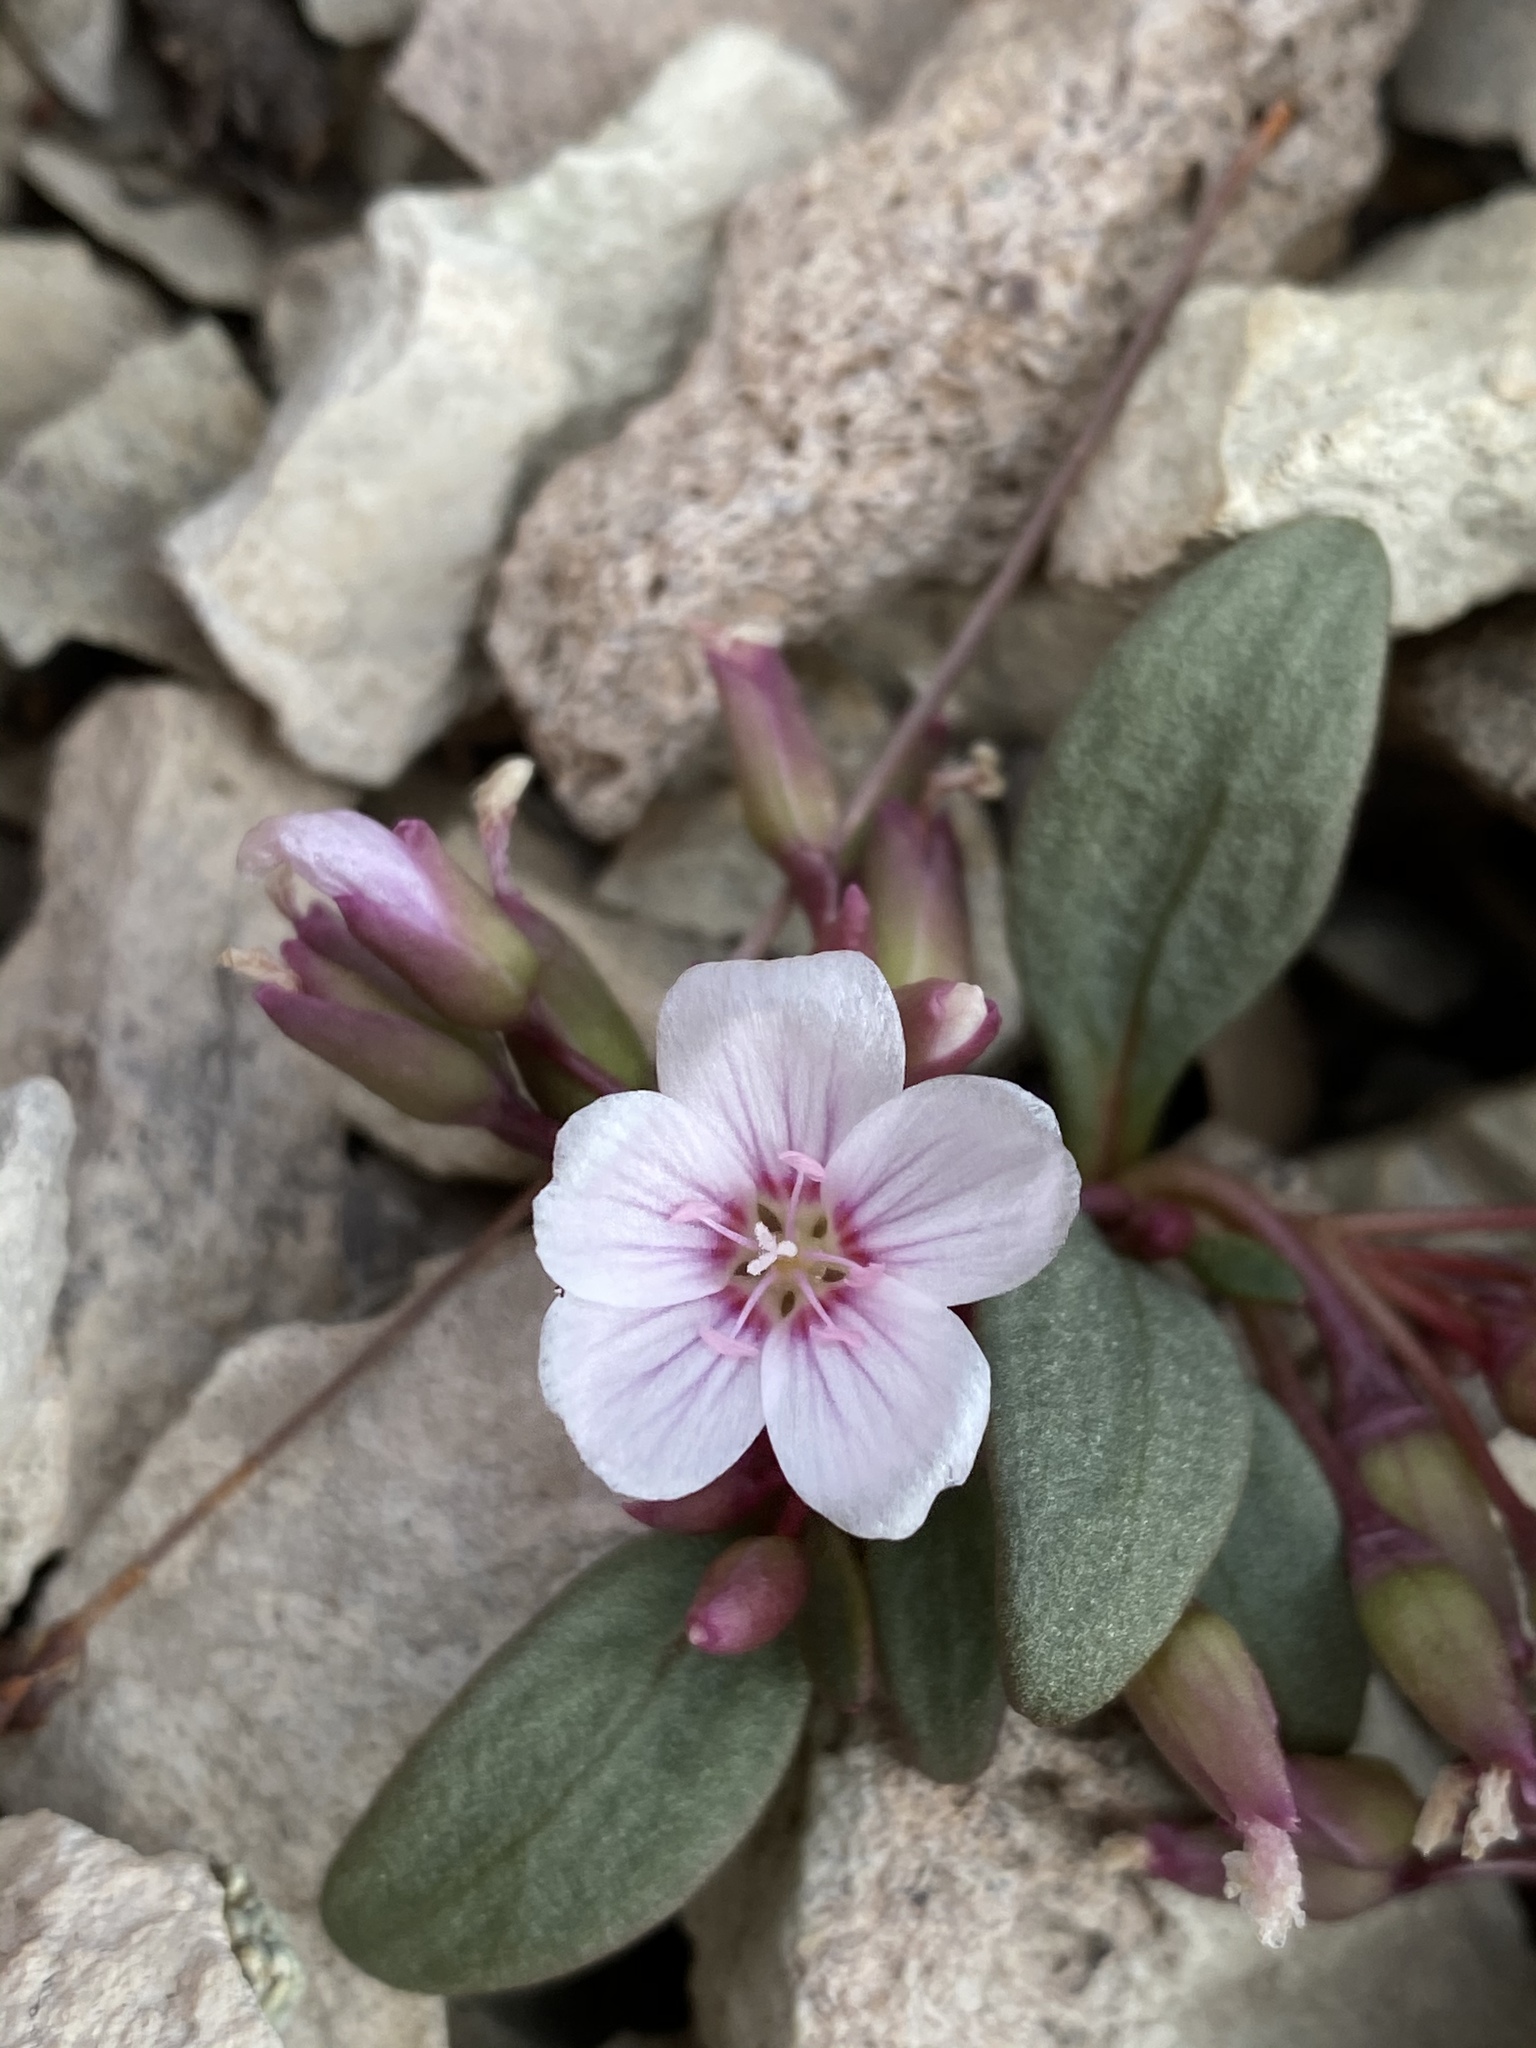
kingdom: Plantae
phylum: Tracheophyta
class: Magnoliopsida
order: Caryophyllales
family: Montiaceae
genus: Claytonia
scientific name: Claytonia peirsonii
